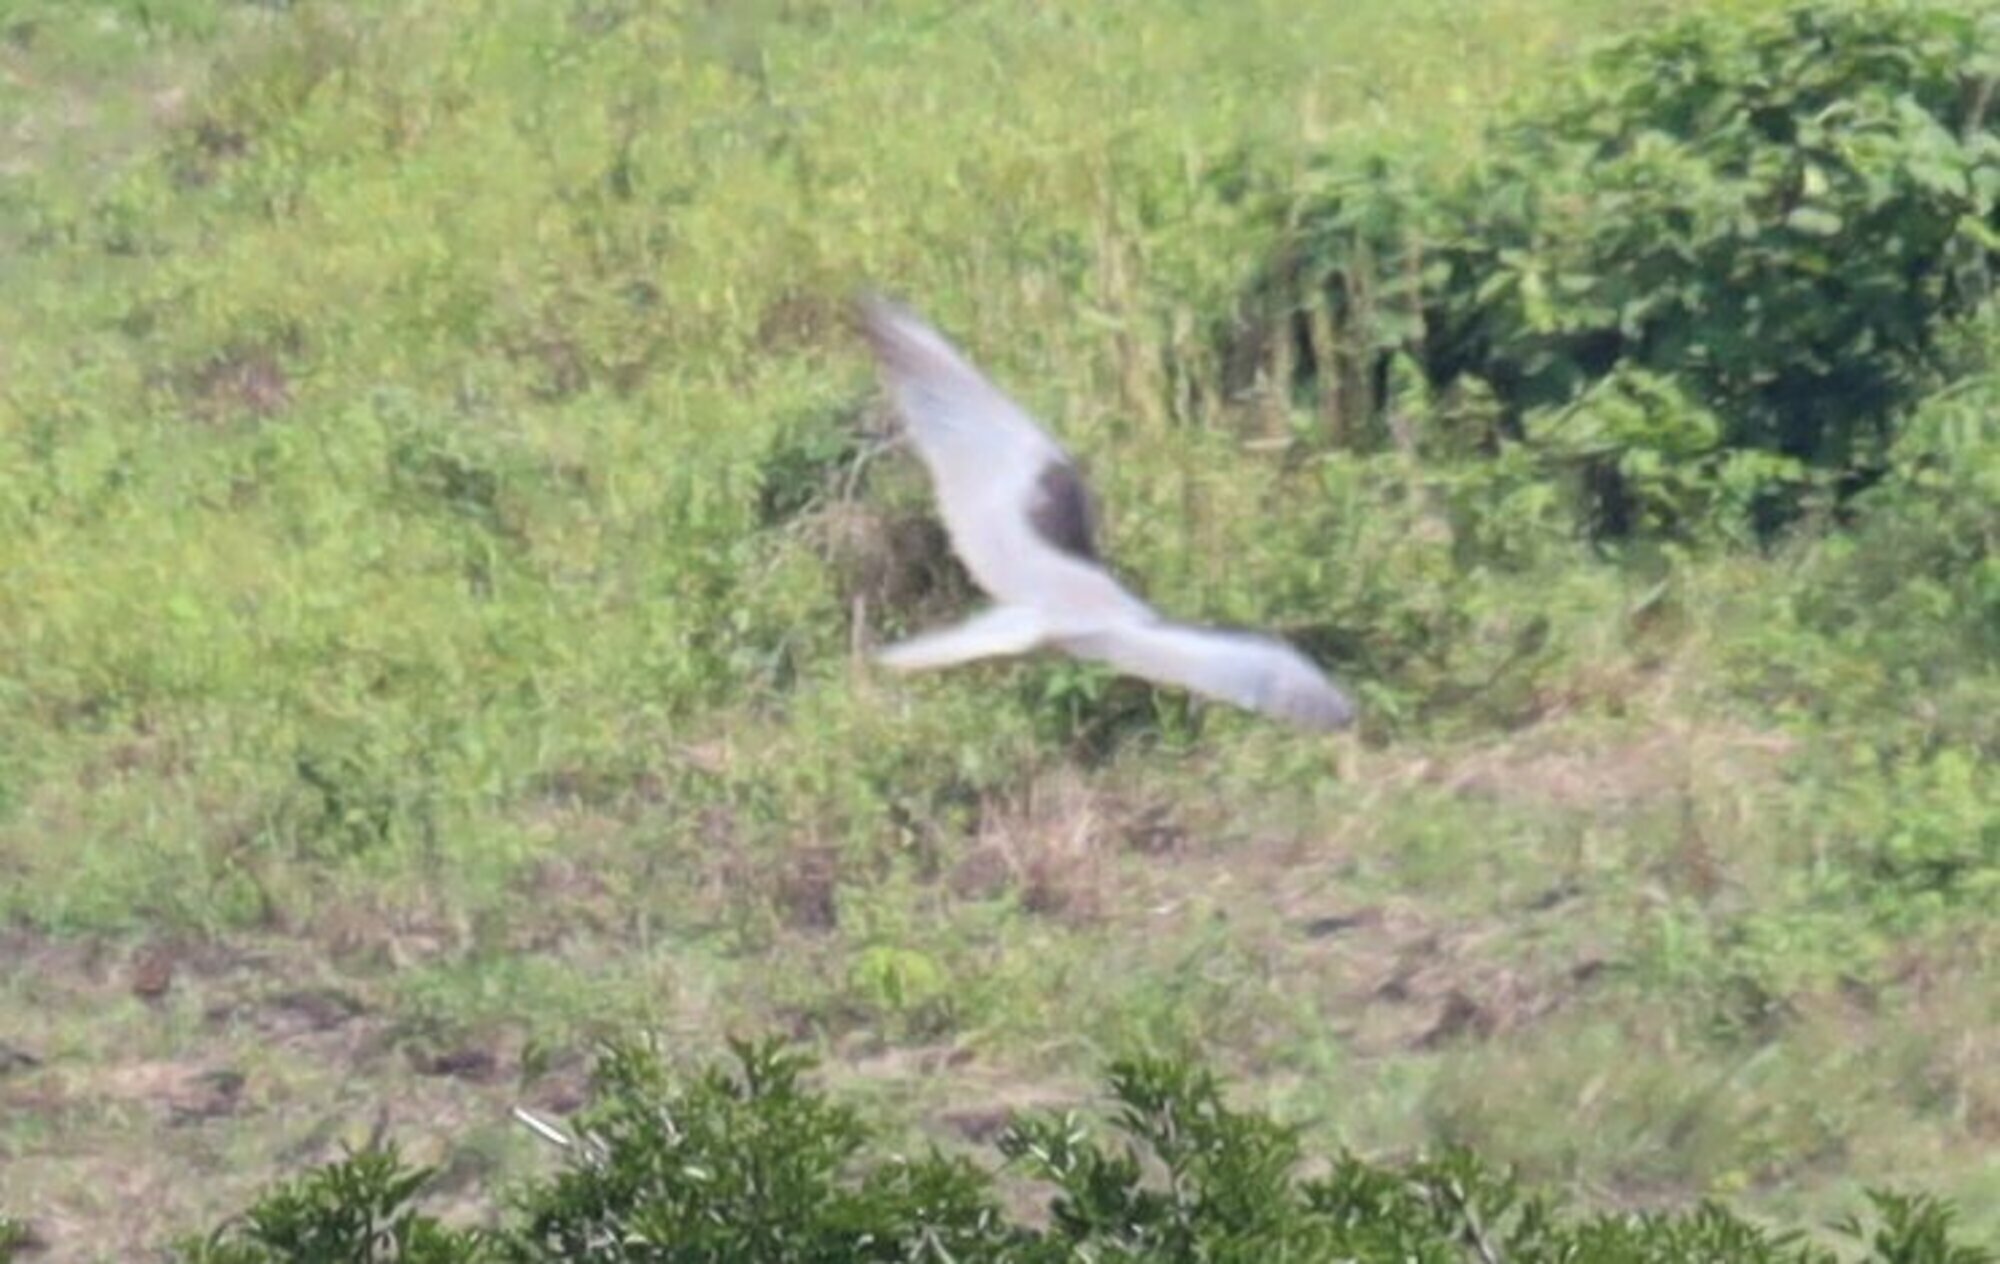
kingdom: Animalia
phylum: Chordata
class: Aves
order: Accipitriformes
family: Accipitridae
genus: Elanus
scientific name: Elanus leucurus
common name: White-tailed kite
